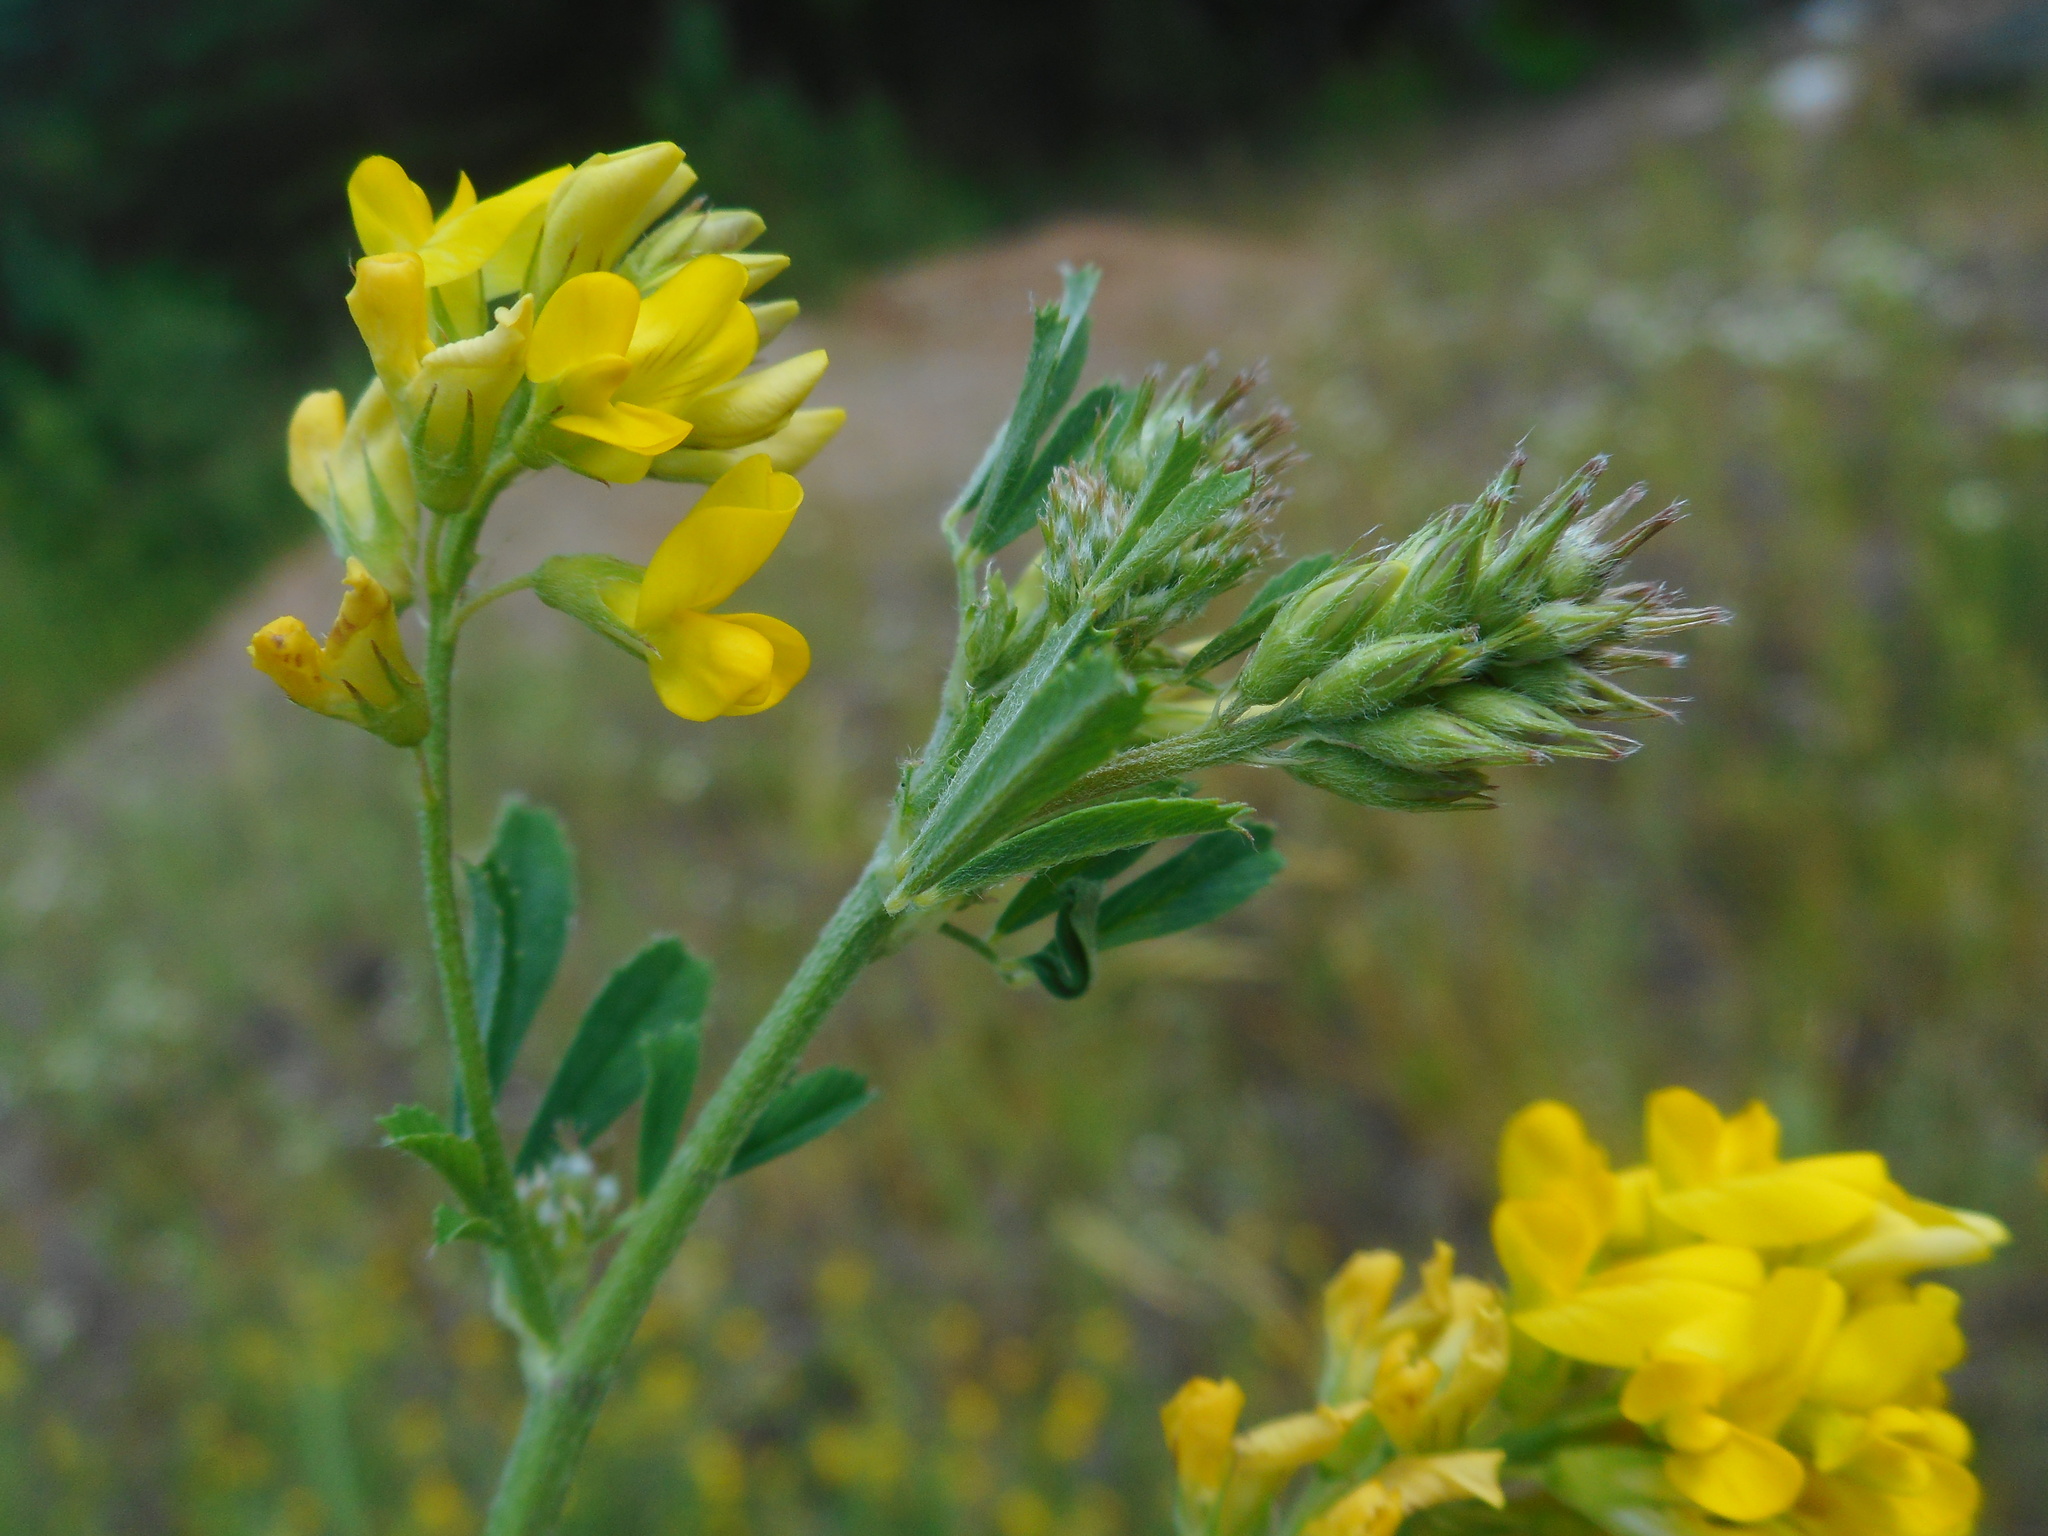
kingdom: Plantae
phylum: Tracheophyta
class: Magnoliopsida
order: Fabales
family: Fabaceae
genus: Medicago
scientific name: Medicago falcata
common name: Sickle medick
